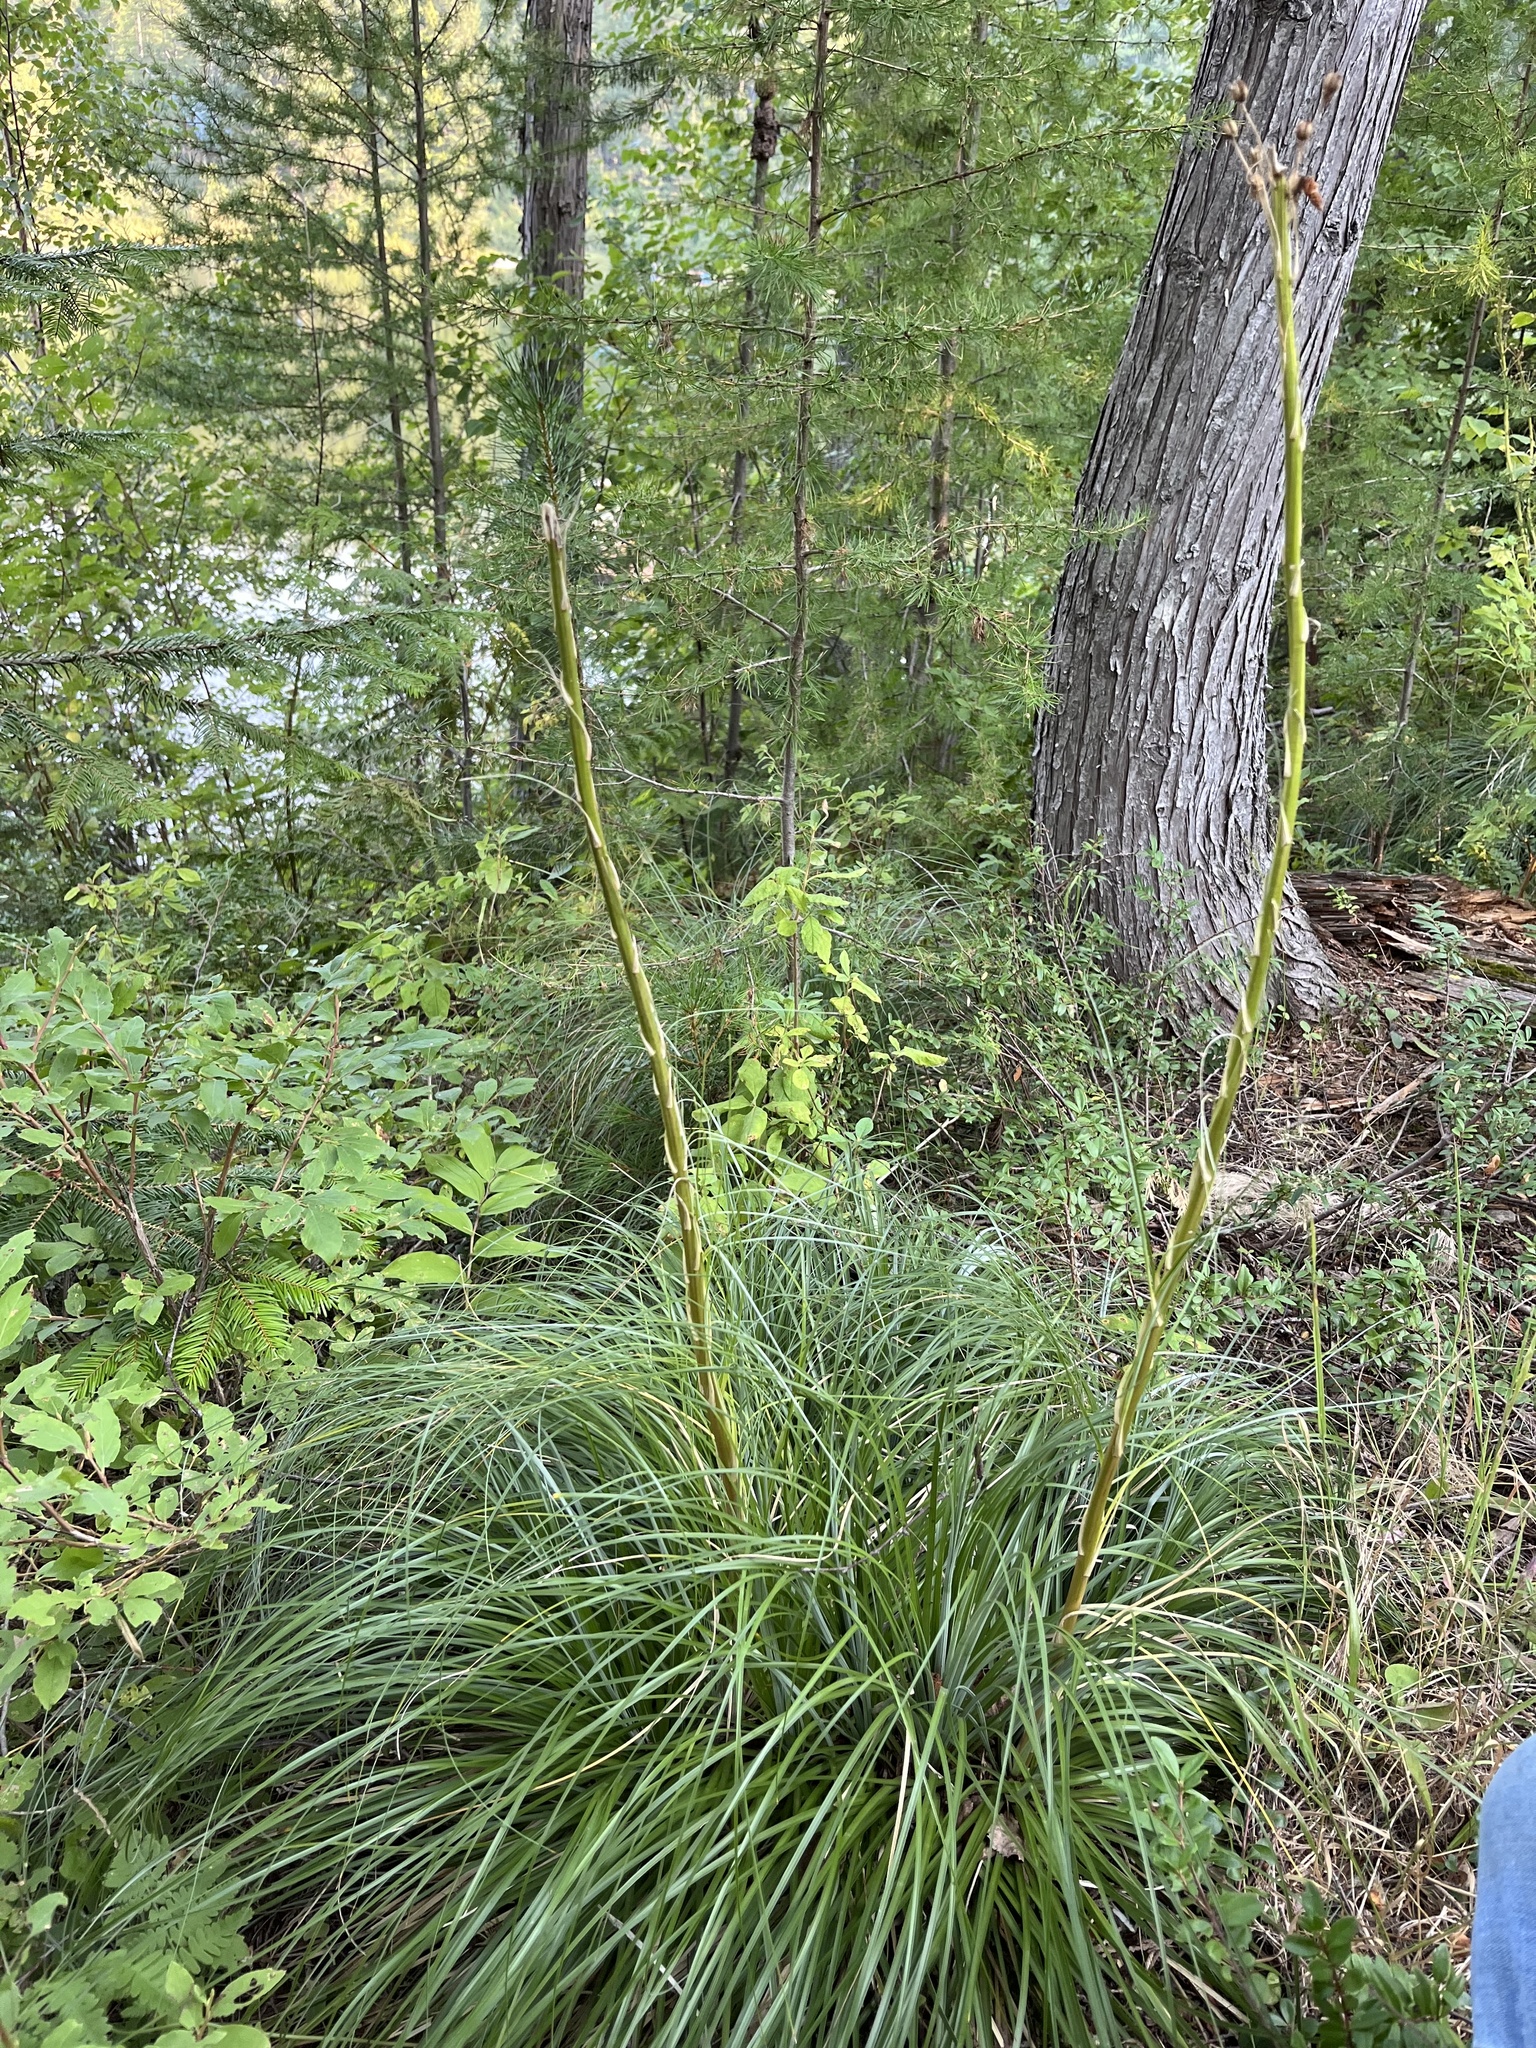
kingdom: Plantae
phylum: Tracheophyta
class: Liliopsida
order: Liliales
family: Melanthiaceae
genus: Xerophyllum
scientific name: Xerophyllum tenax
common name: Bear-grass
